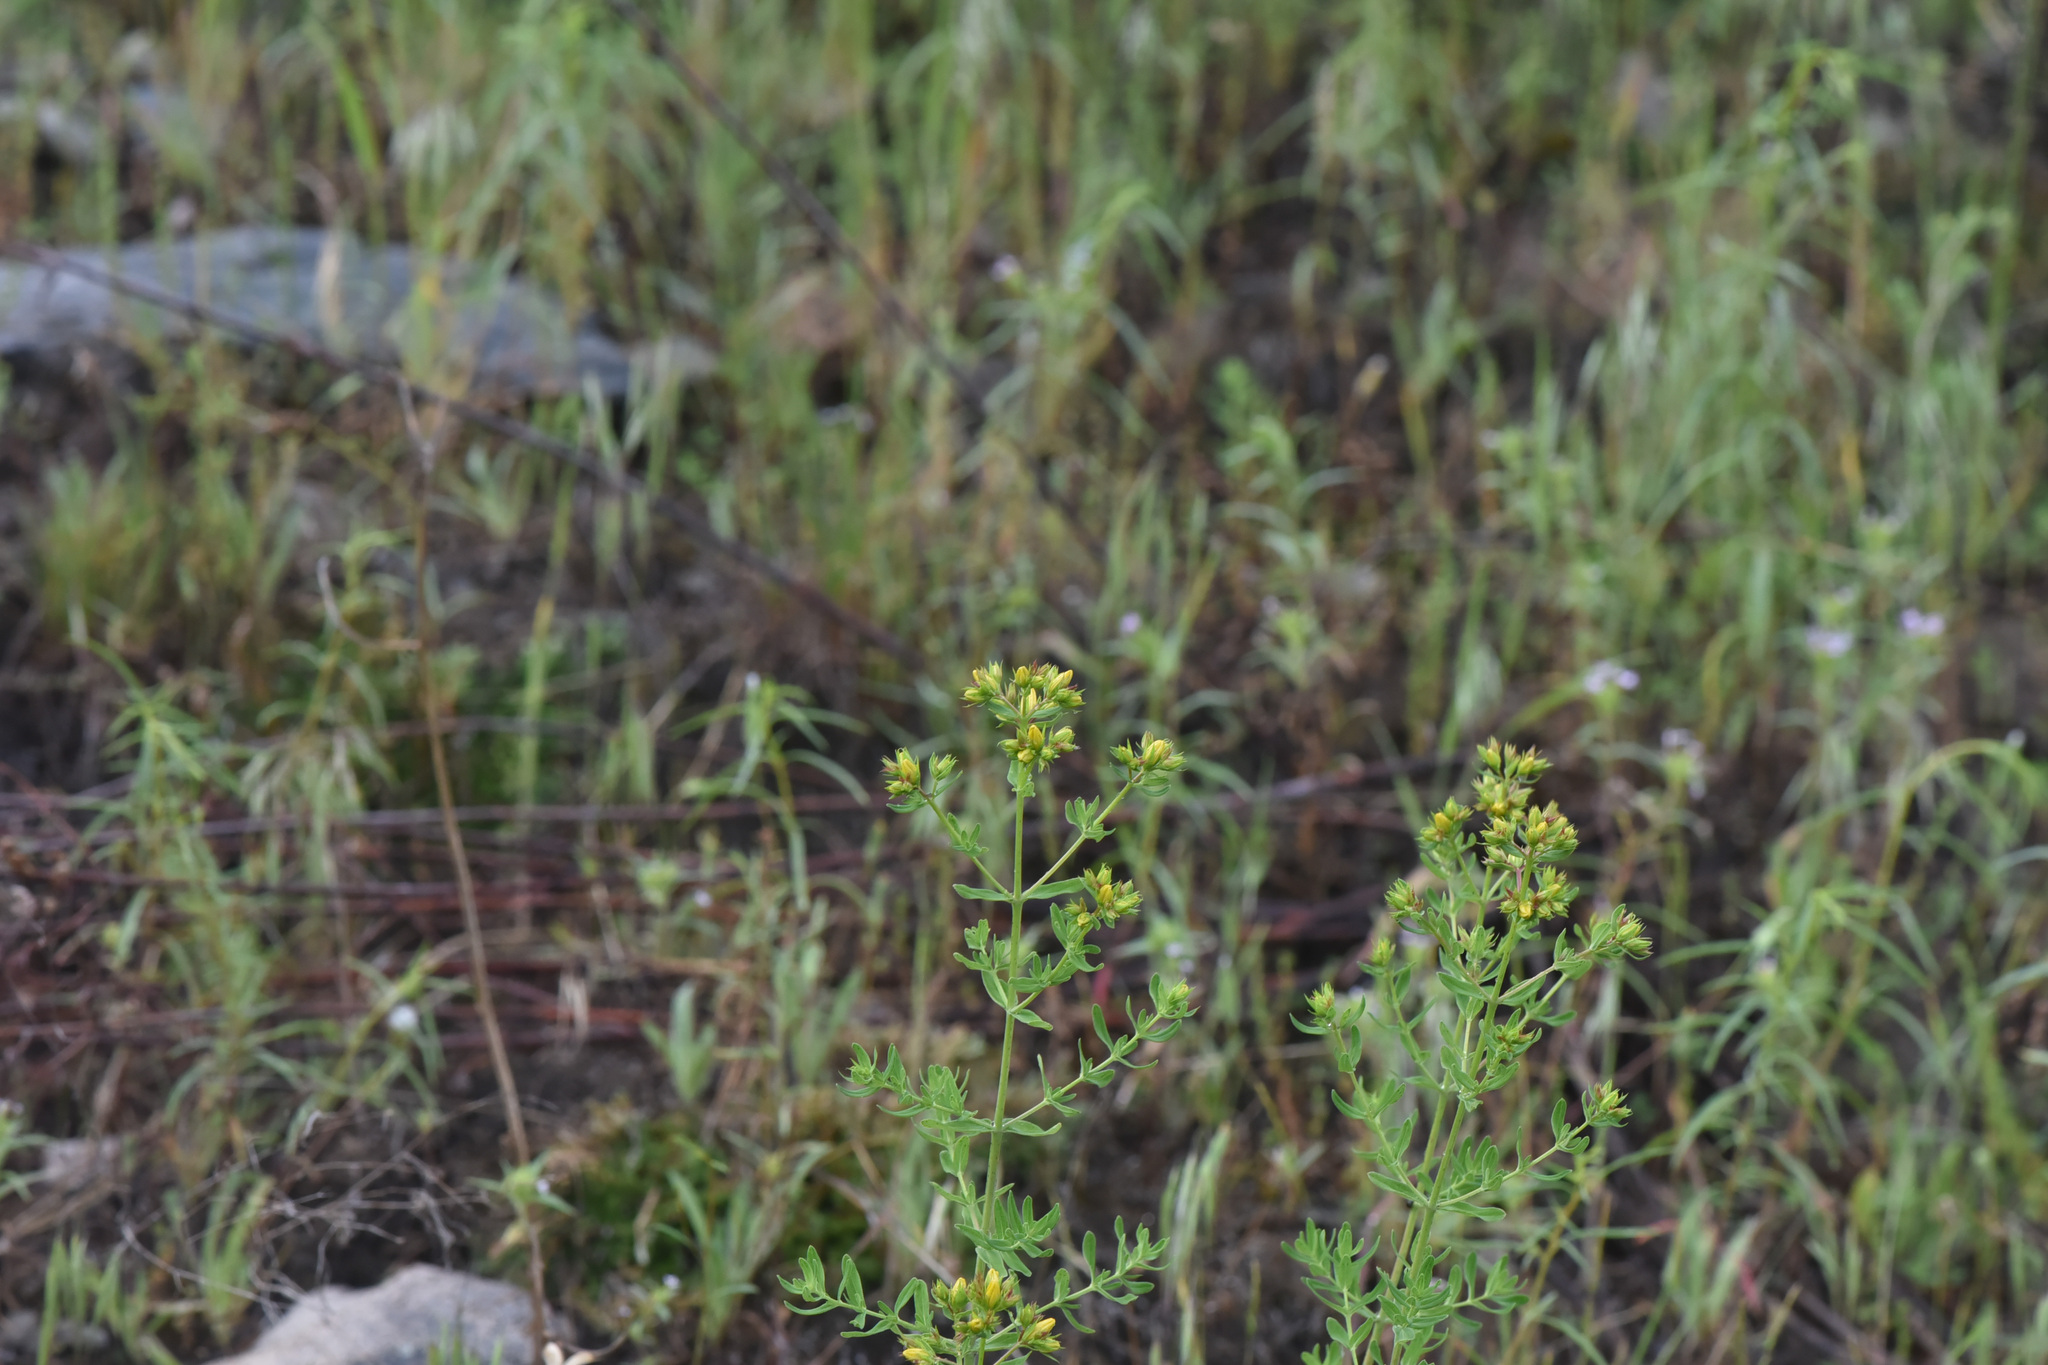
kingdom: Plantae
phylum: Tracheophyta
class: Magnoliopsida
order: Malpighiales
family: Hypericaceae
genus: Hypericum
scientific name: Hypericum perforatum
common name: Common st. johnswort
